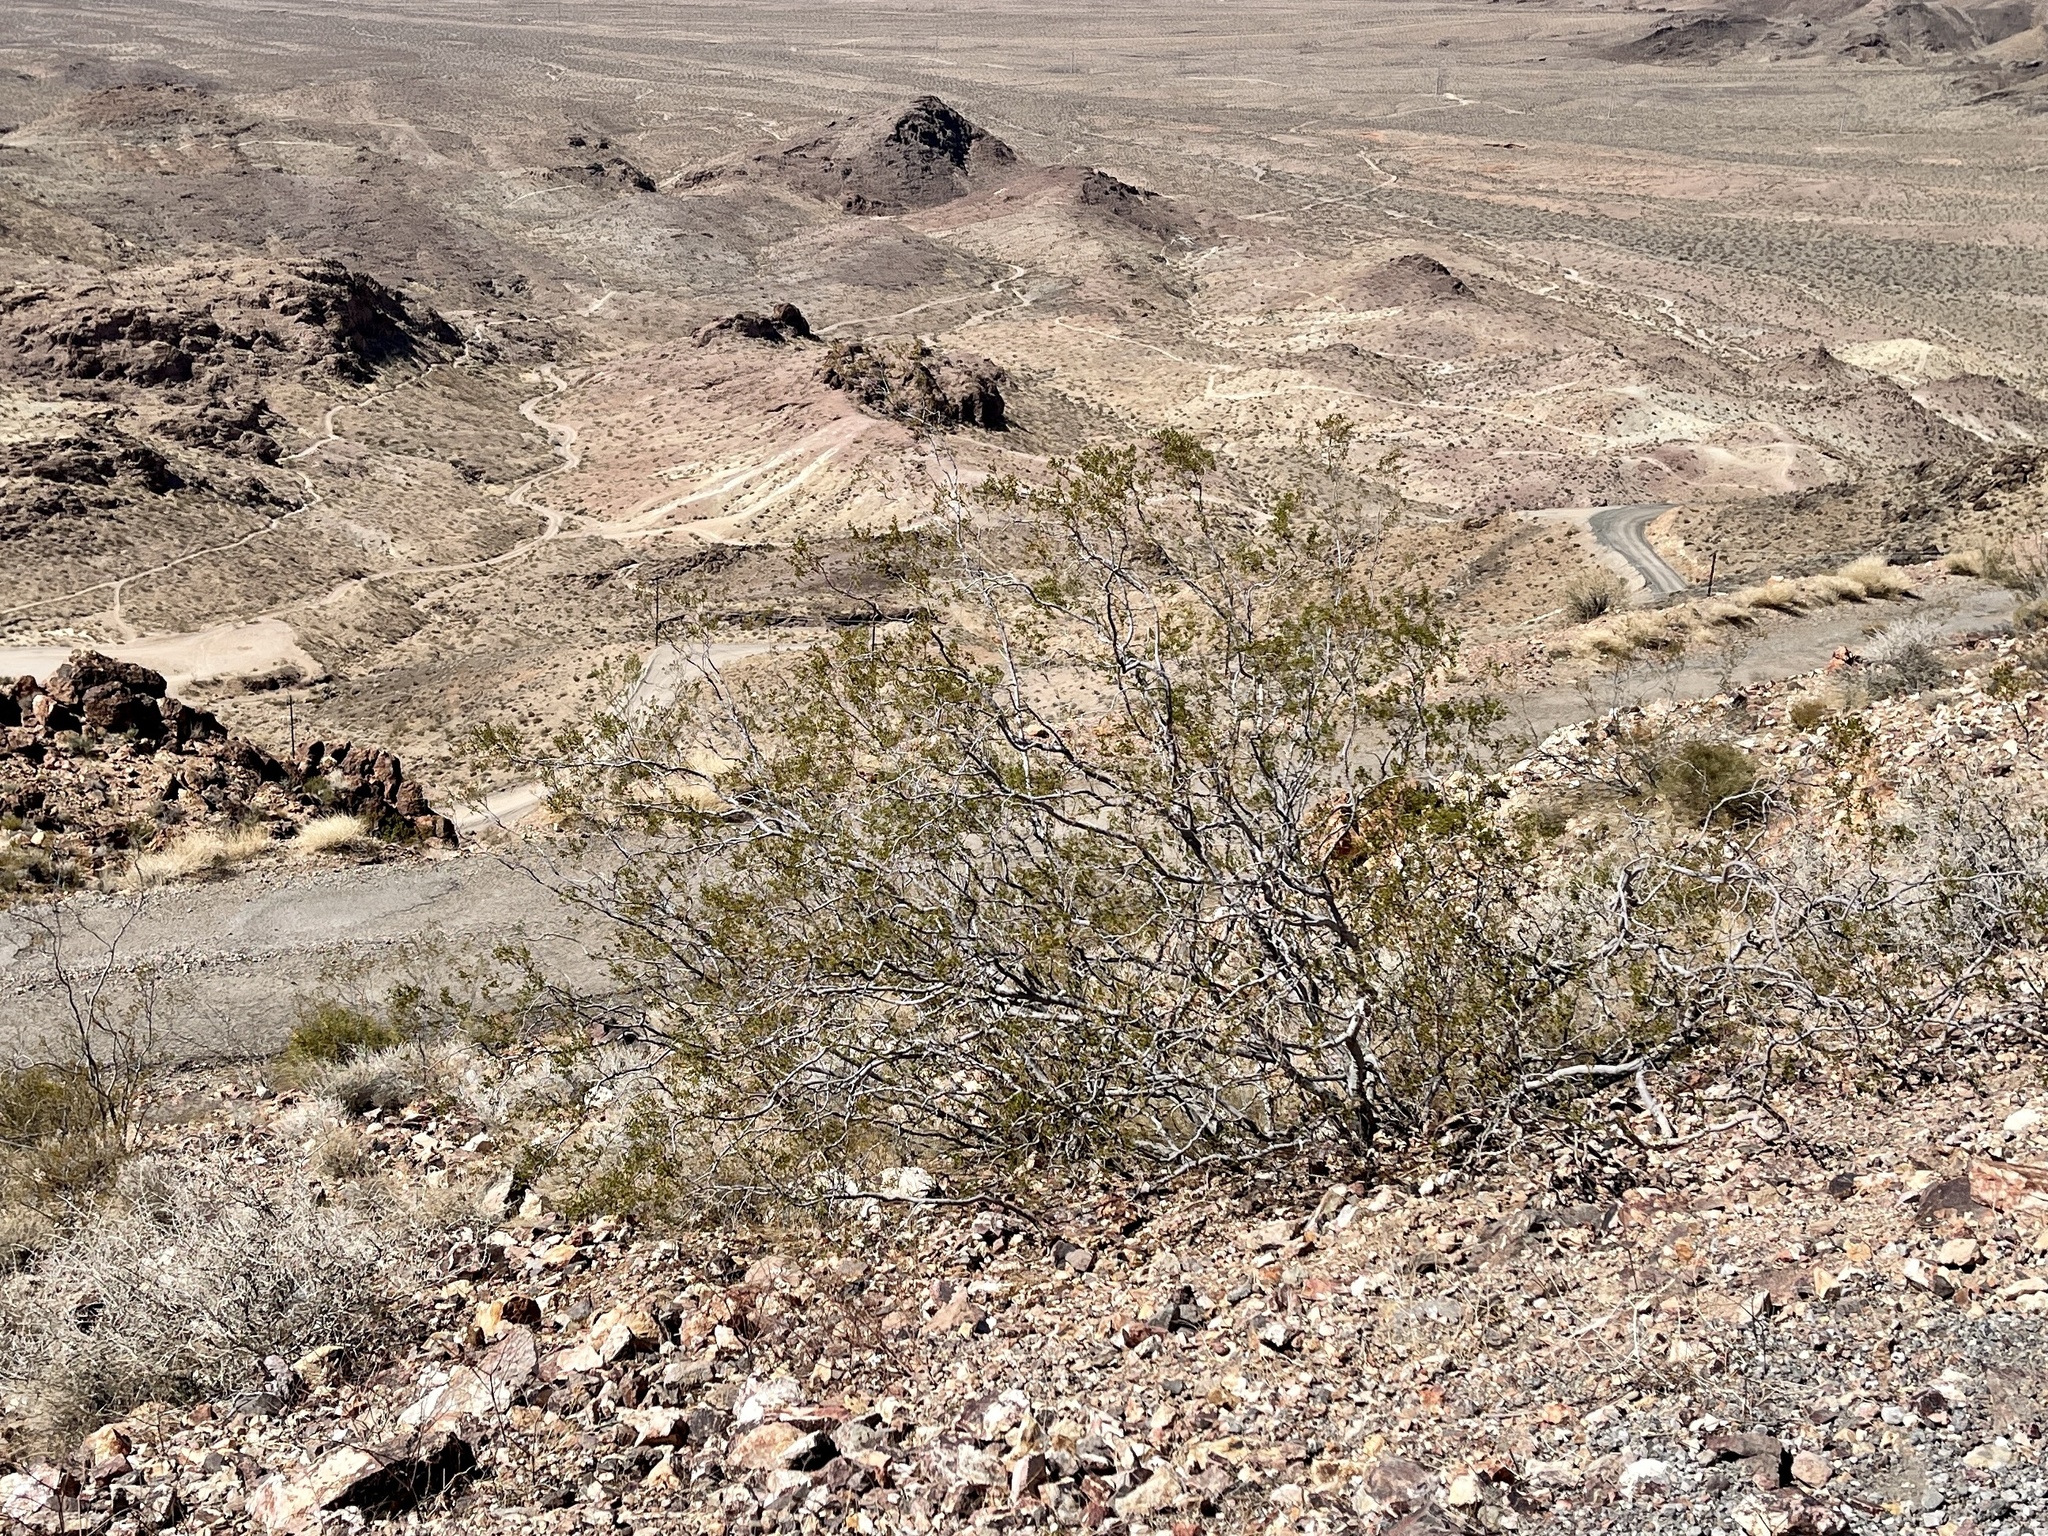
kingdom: Plantae
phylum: Tracheophyta
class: Magnoliopsida
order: Zygophyllales
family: Zygophyllaceae
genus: Larrea
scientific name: Larrea tridentata
